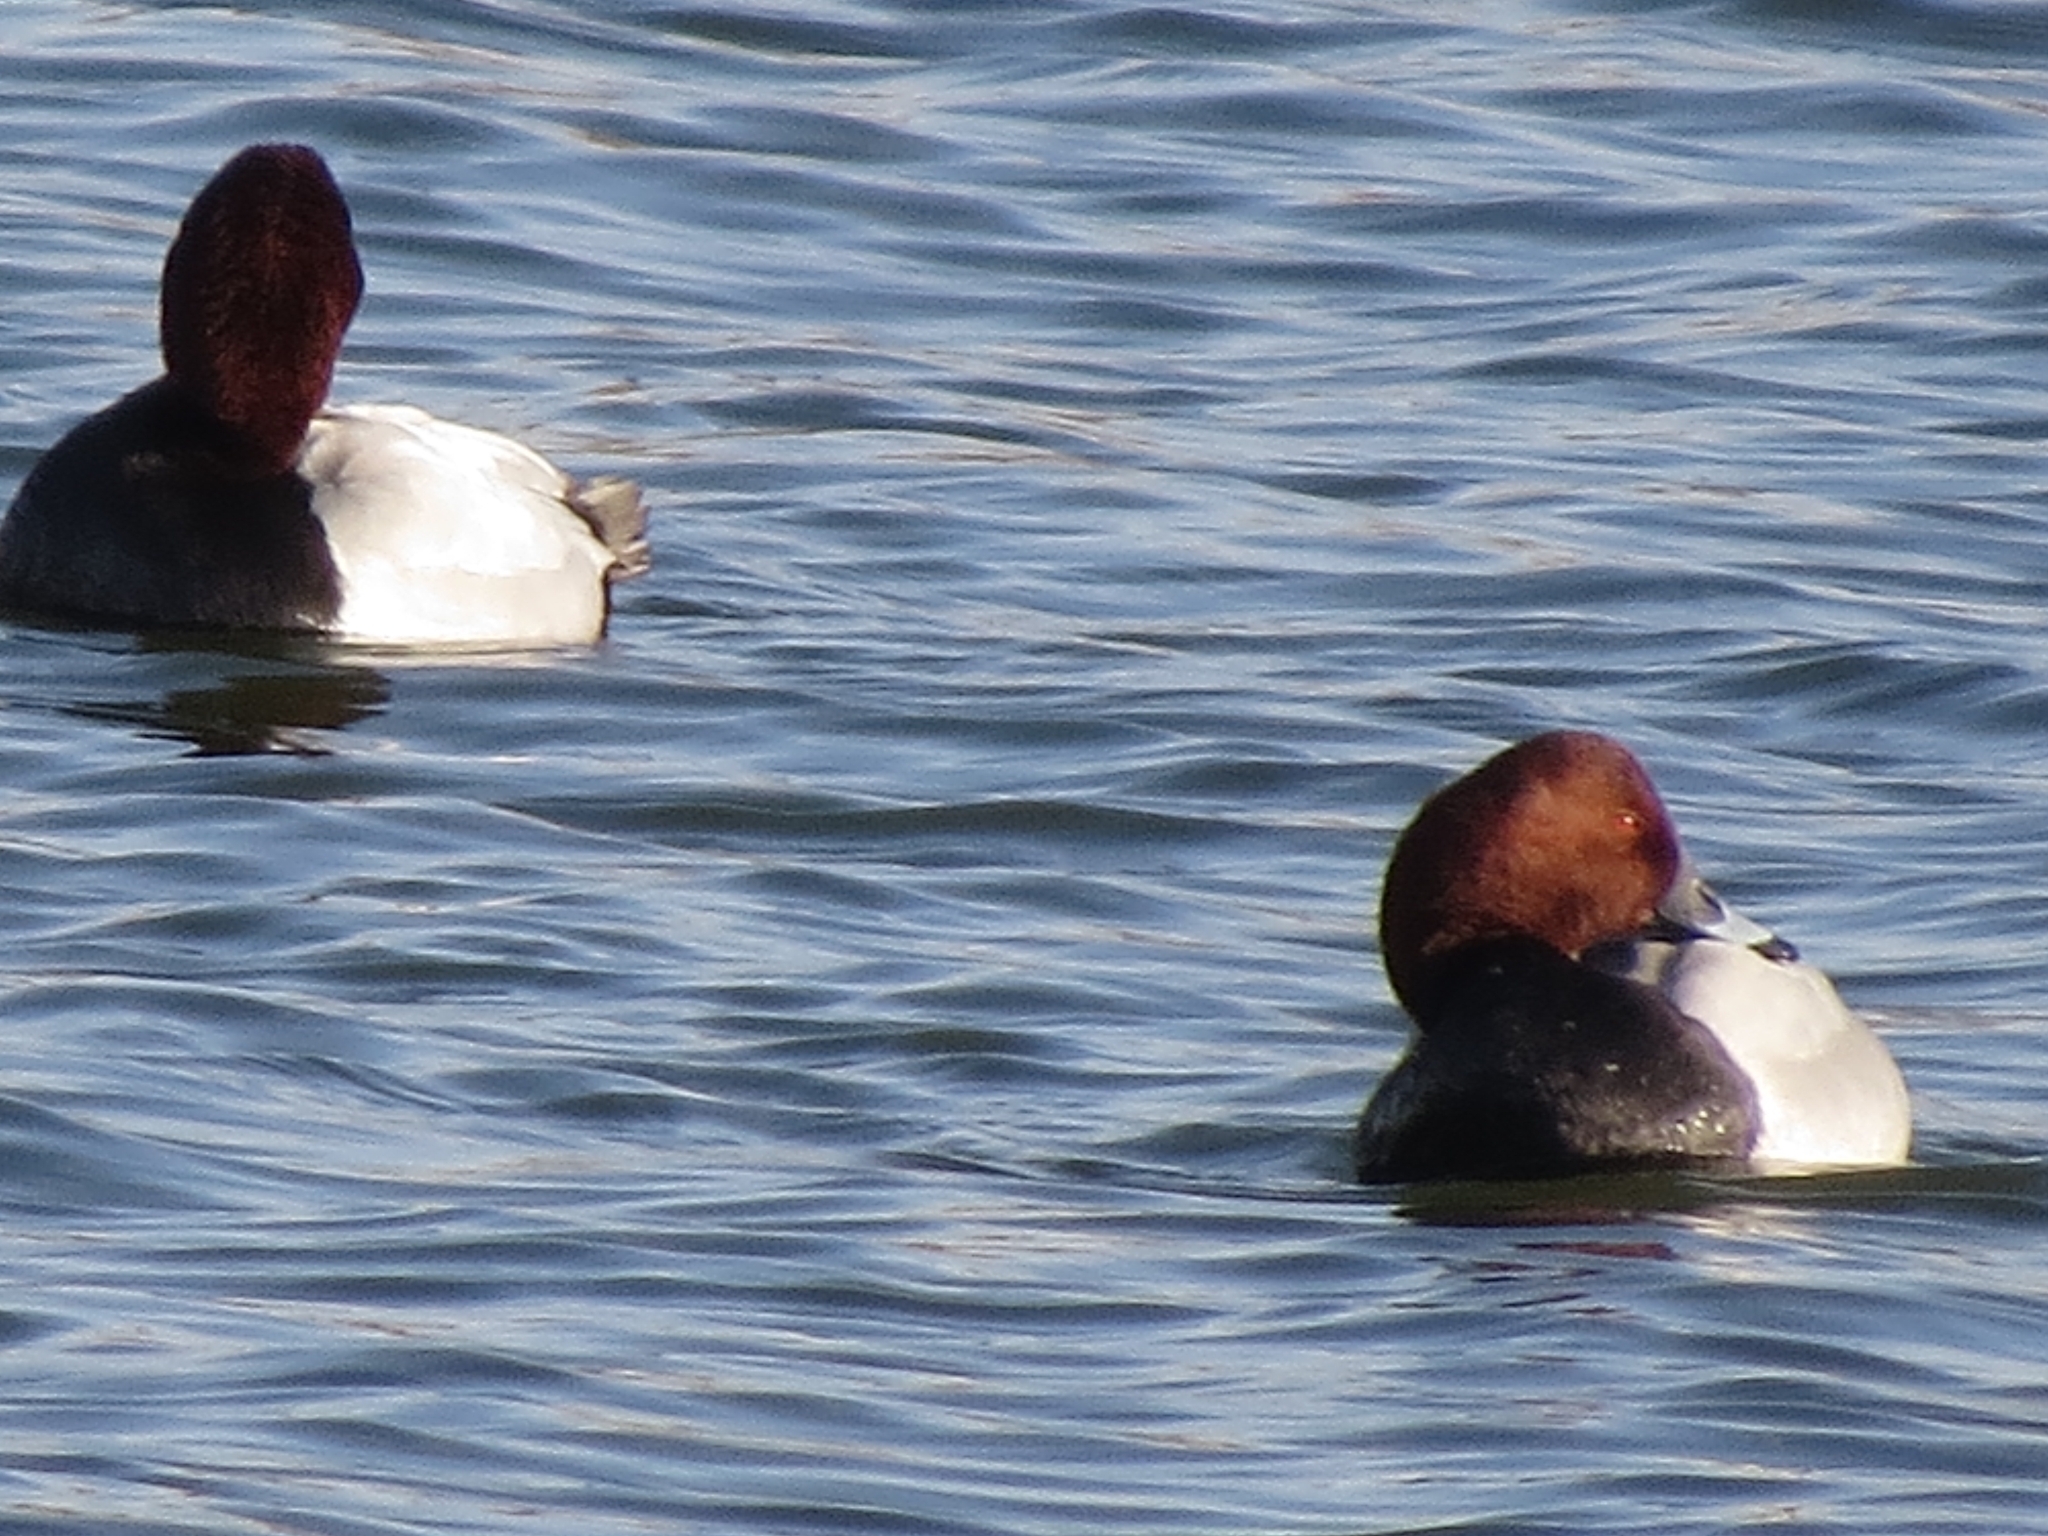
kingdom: Animalia
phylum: Chordata
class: Aves
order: Anseriformes
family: Anatidae
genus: Aythya
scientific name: Aythya ferina
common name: Common pochard
